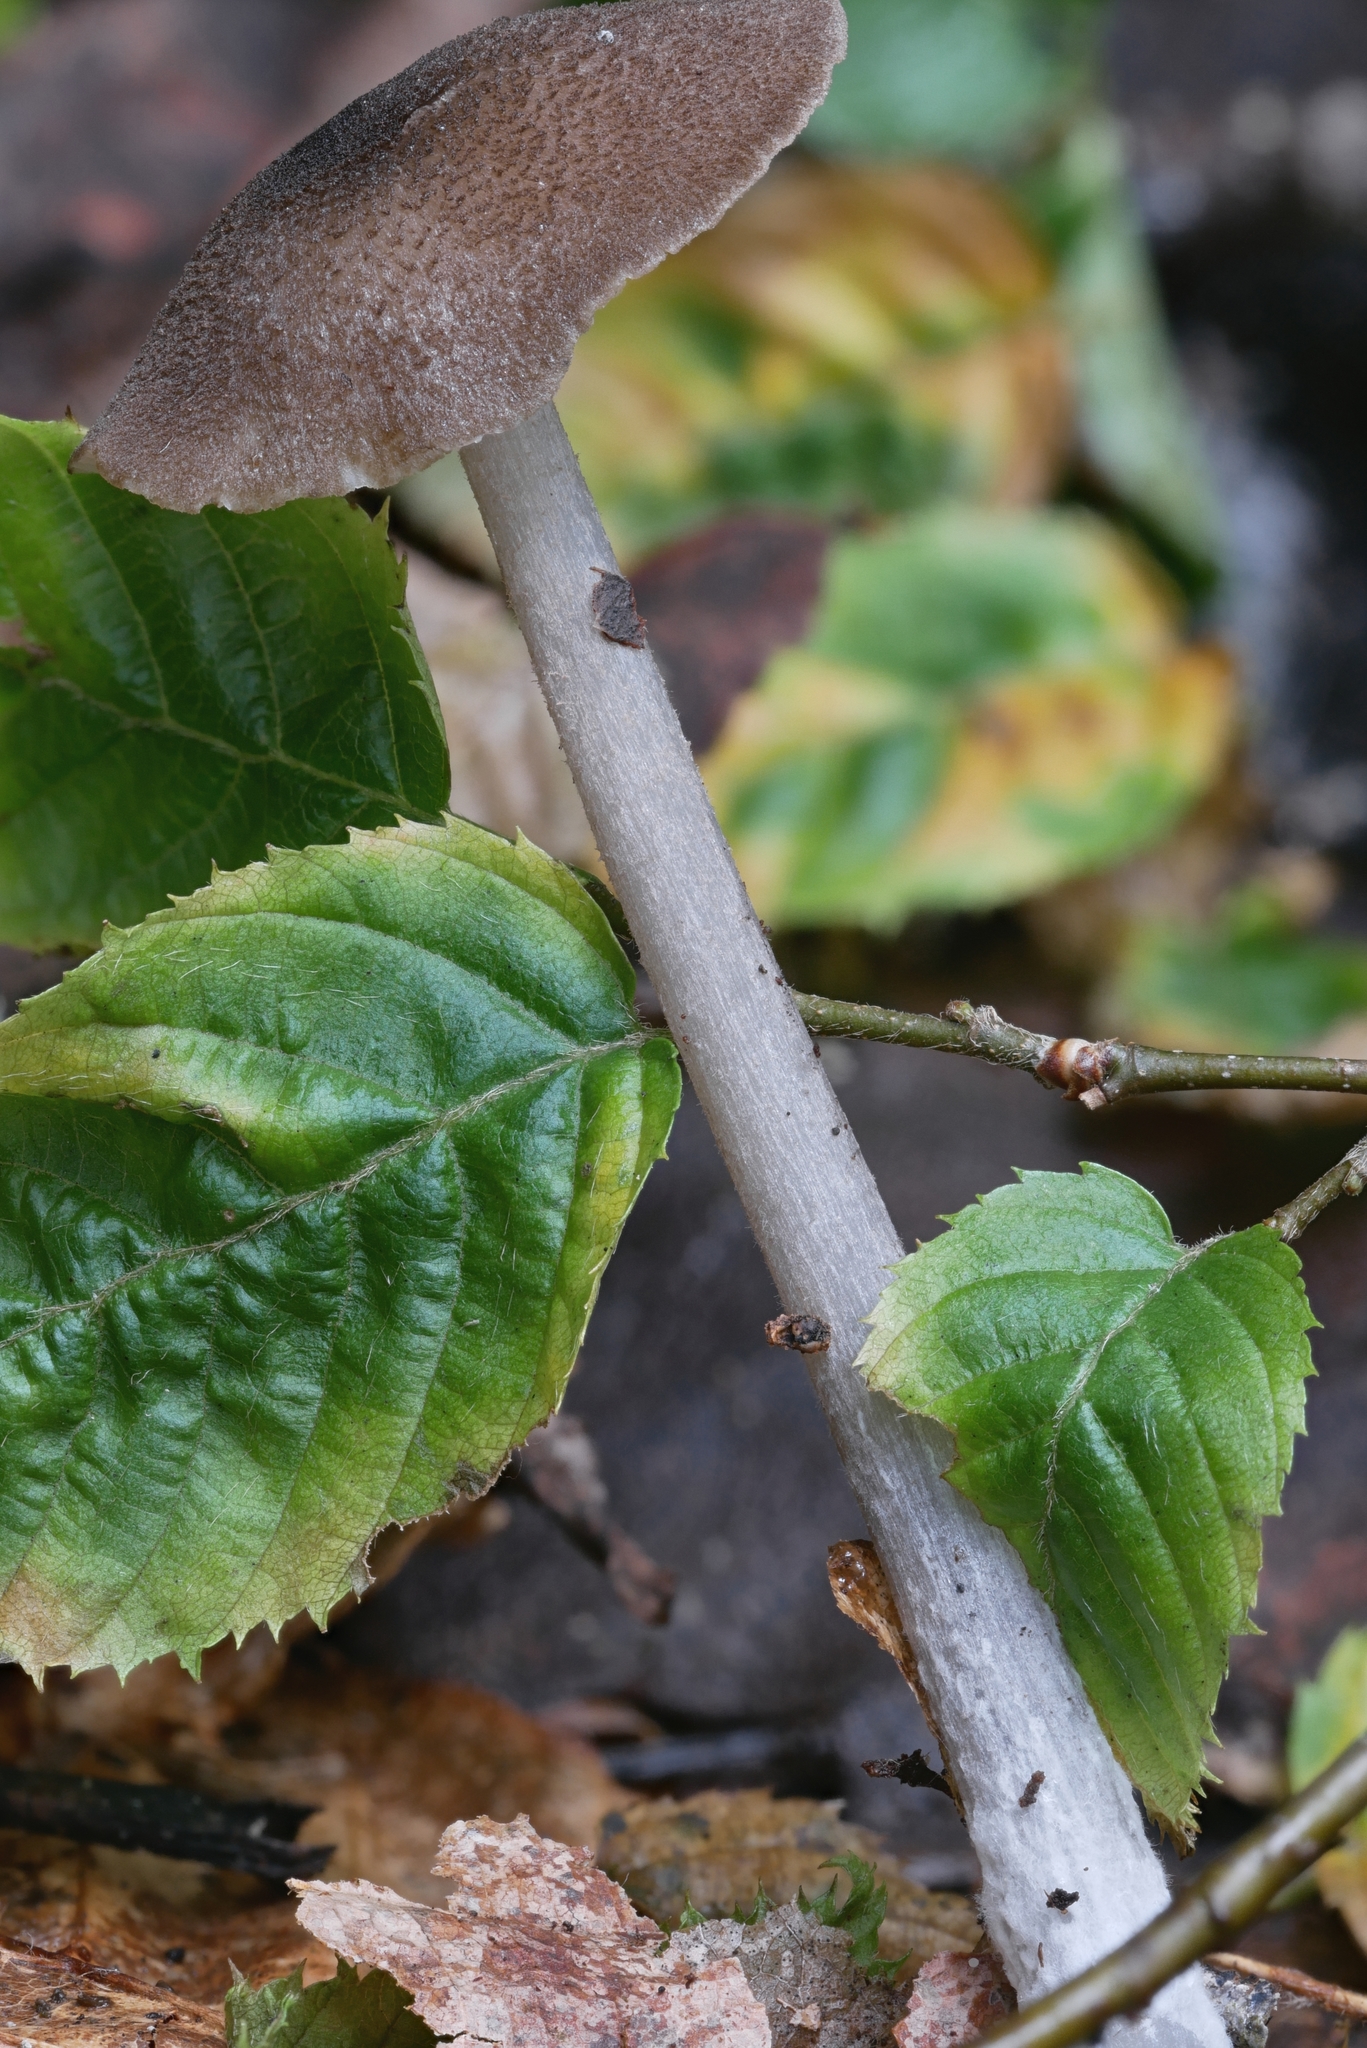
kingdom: Fungi
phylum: Basidiomycota
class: Agaricomycetes
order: Agaricales
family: Entolomataceae
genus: Entoloma
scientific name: Entoloma fuscosquamosum
